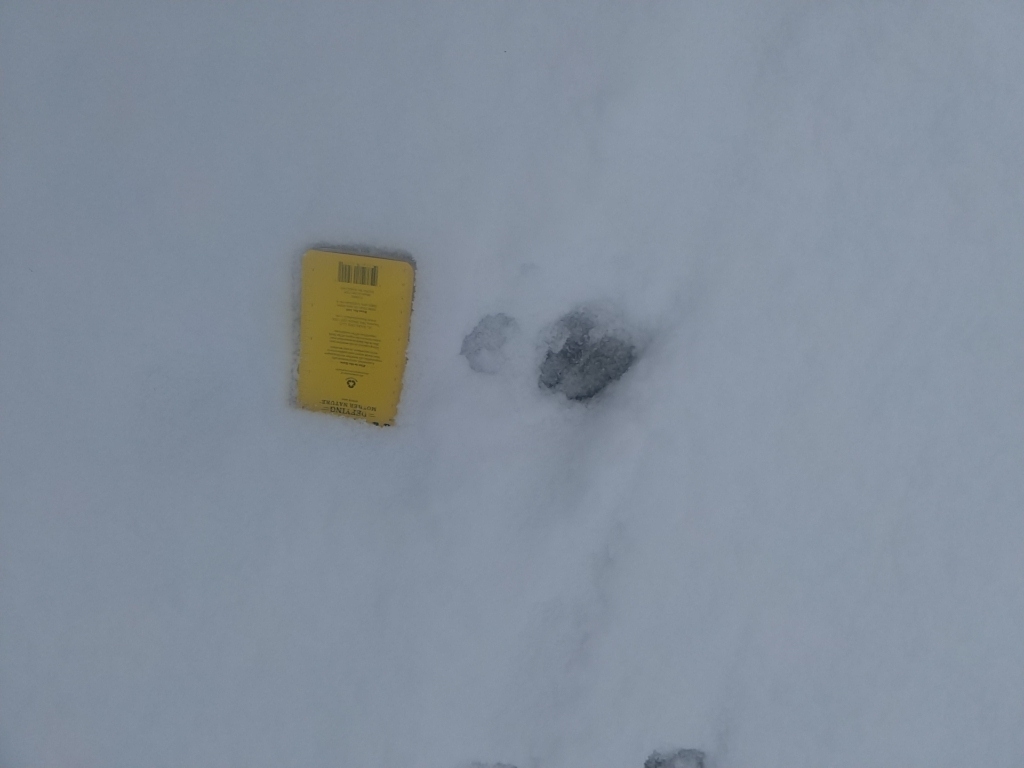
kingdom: Animalia
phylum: Chordata
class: Mammalia
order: Artiodactyla
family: Cervidae
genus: Odocoileus
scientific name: Odocoileus virginianus
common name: White-tailed deer
